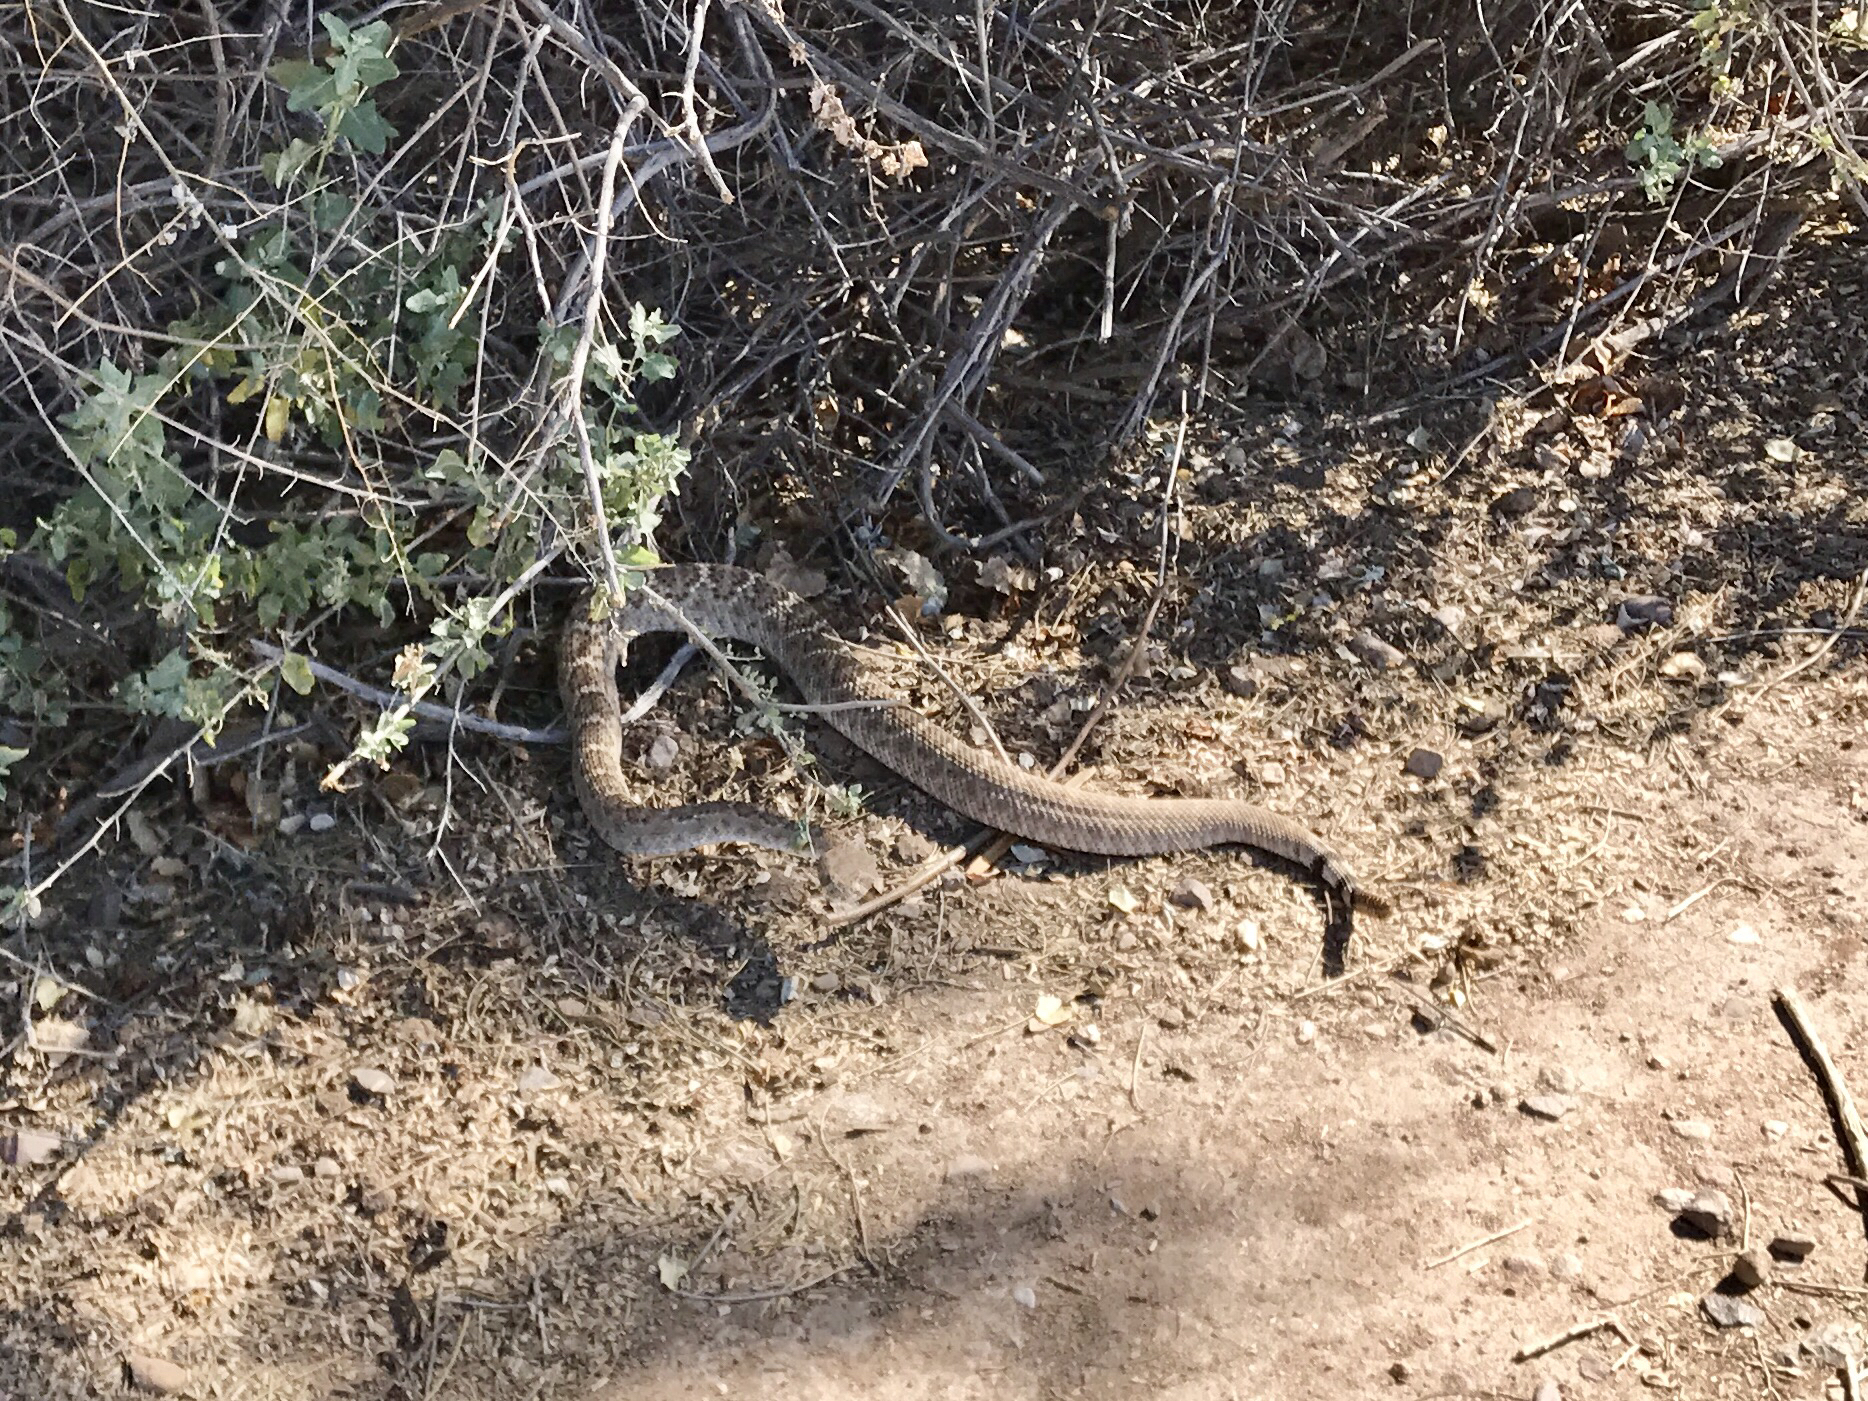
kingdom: Animalia
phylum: Chordata
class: Squamata
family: Viperidae
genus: Crotalus
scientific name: Crotalus atrox
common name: Western diamond-backed rattlesnake
